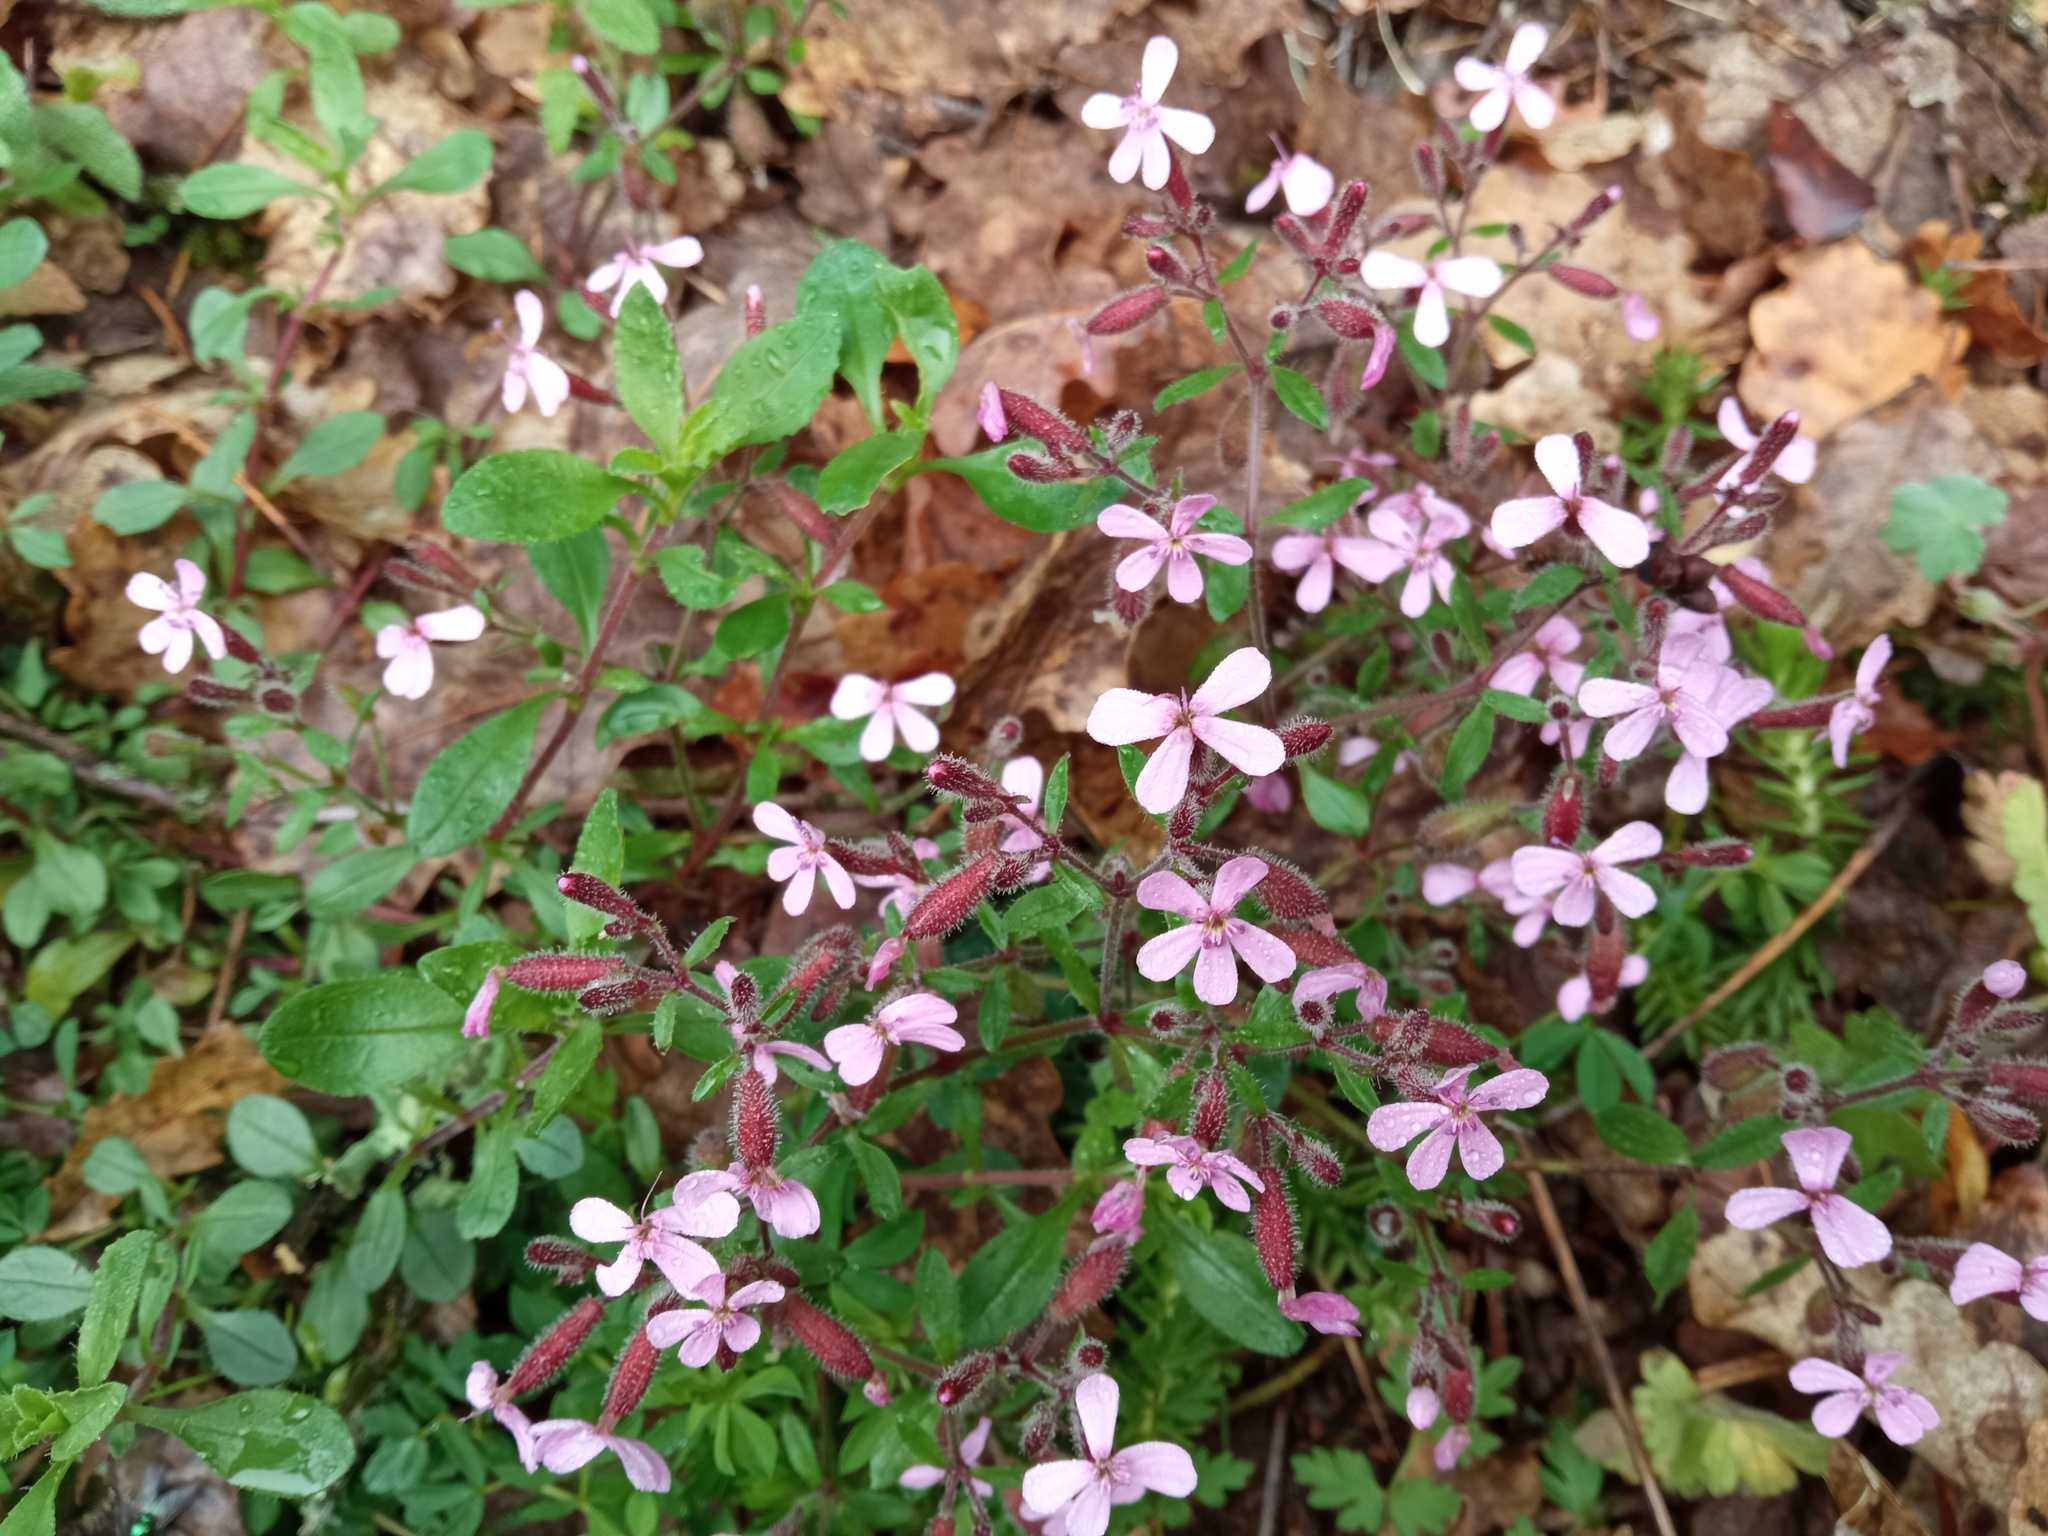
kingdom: Plantae
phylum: Tracheophyta
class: Magnoliopsida
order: Caryophyllales
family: Caryophyllaceae
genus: Saponaria
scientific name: Saponaria ocymoides
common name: Rock soapwort
